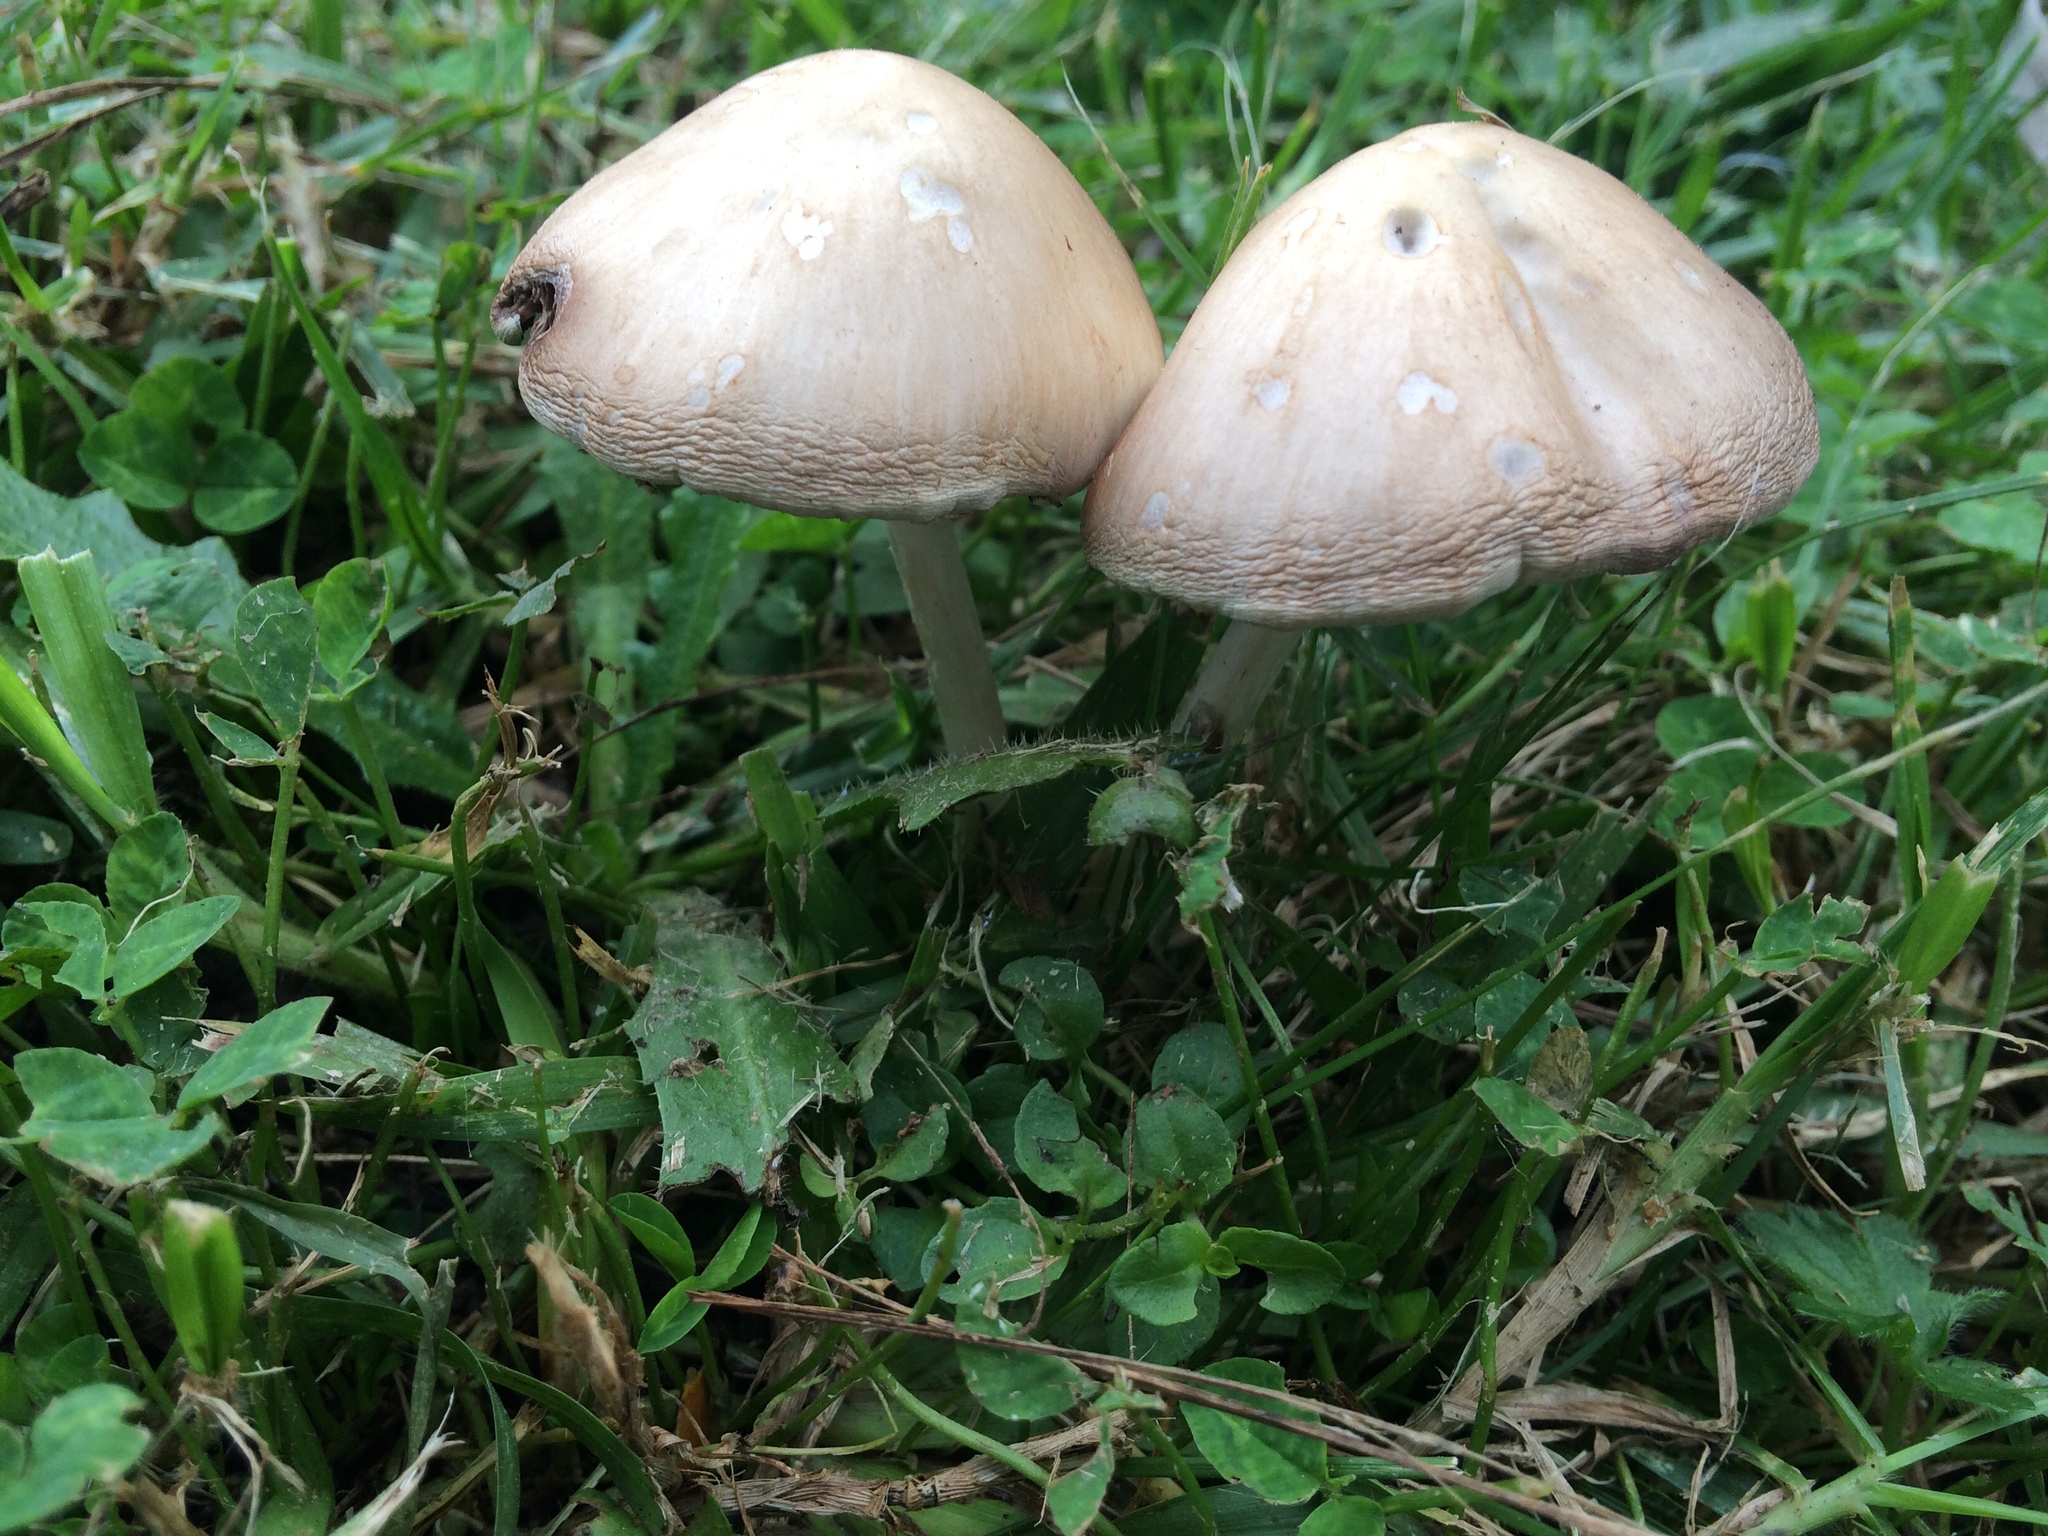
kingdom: Fungi
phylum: Basidiomycota
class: Agaricomycetes
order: Agaricales
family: Psathyrellaceae
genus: Candolleomyces
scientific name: Candolleomyces candolleanus
